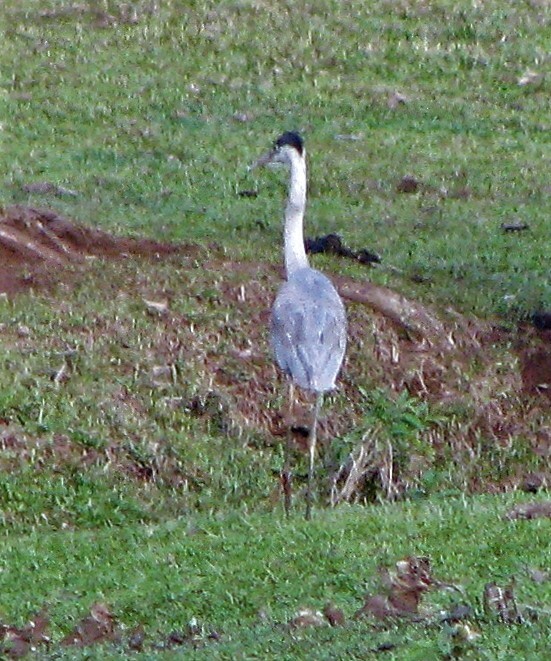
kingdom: Animalia
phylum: Chordata
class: Aves
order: Pelecaniformes
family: Ardeidae
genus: Ardea
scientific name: Ardea cocoi
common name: Cocoi heron
